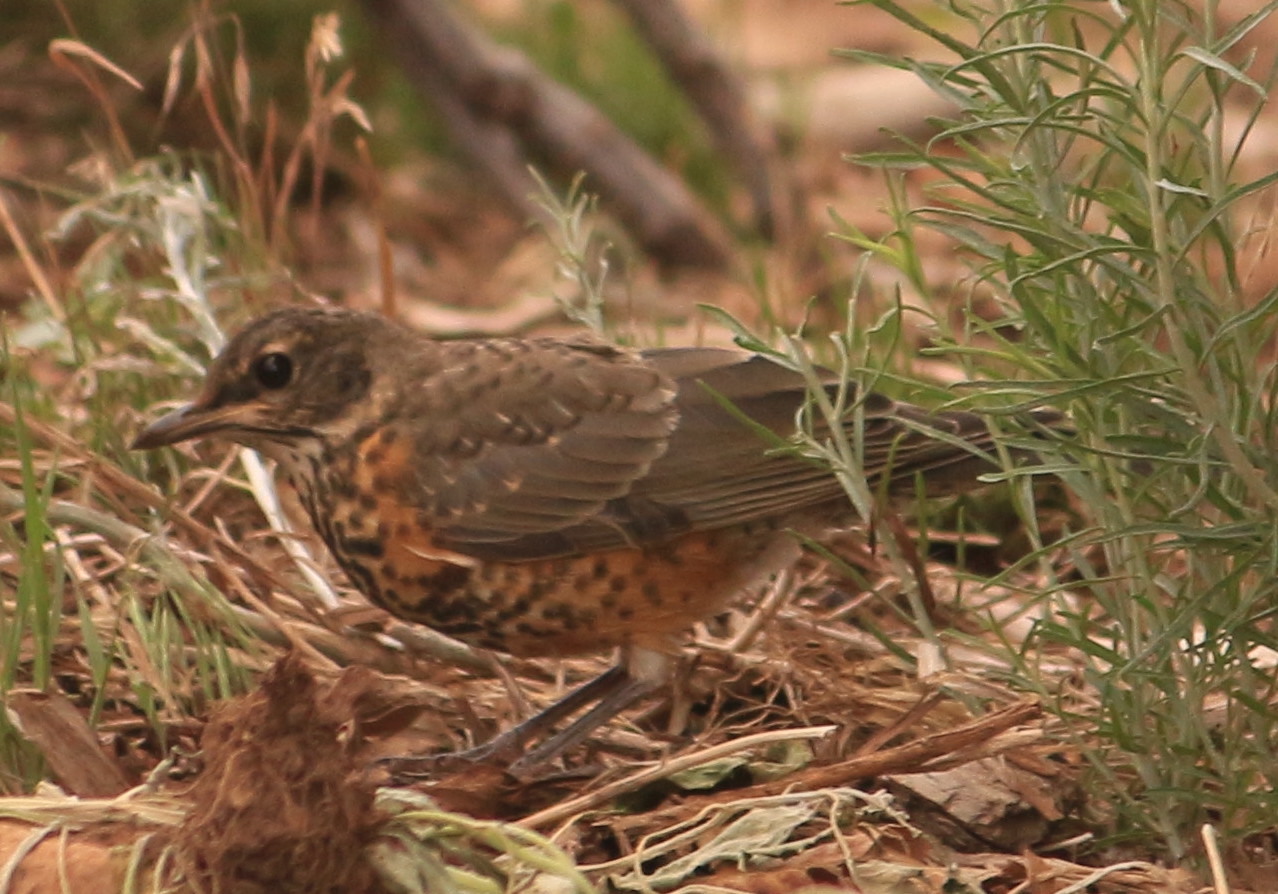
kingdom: Animalia
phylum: Chordata
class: Aves
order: Passeriformes
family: Turdidae
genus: Turdus
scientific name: Turdus migratorius
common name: American robin
